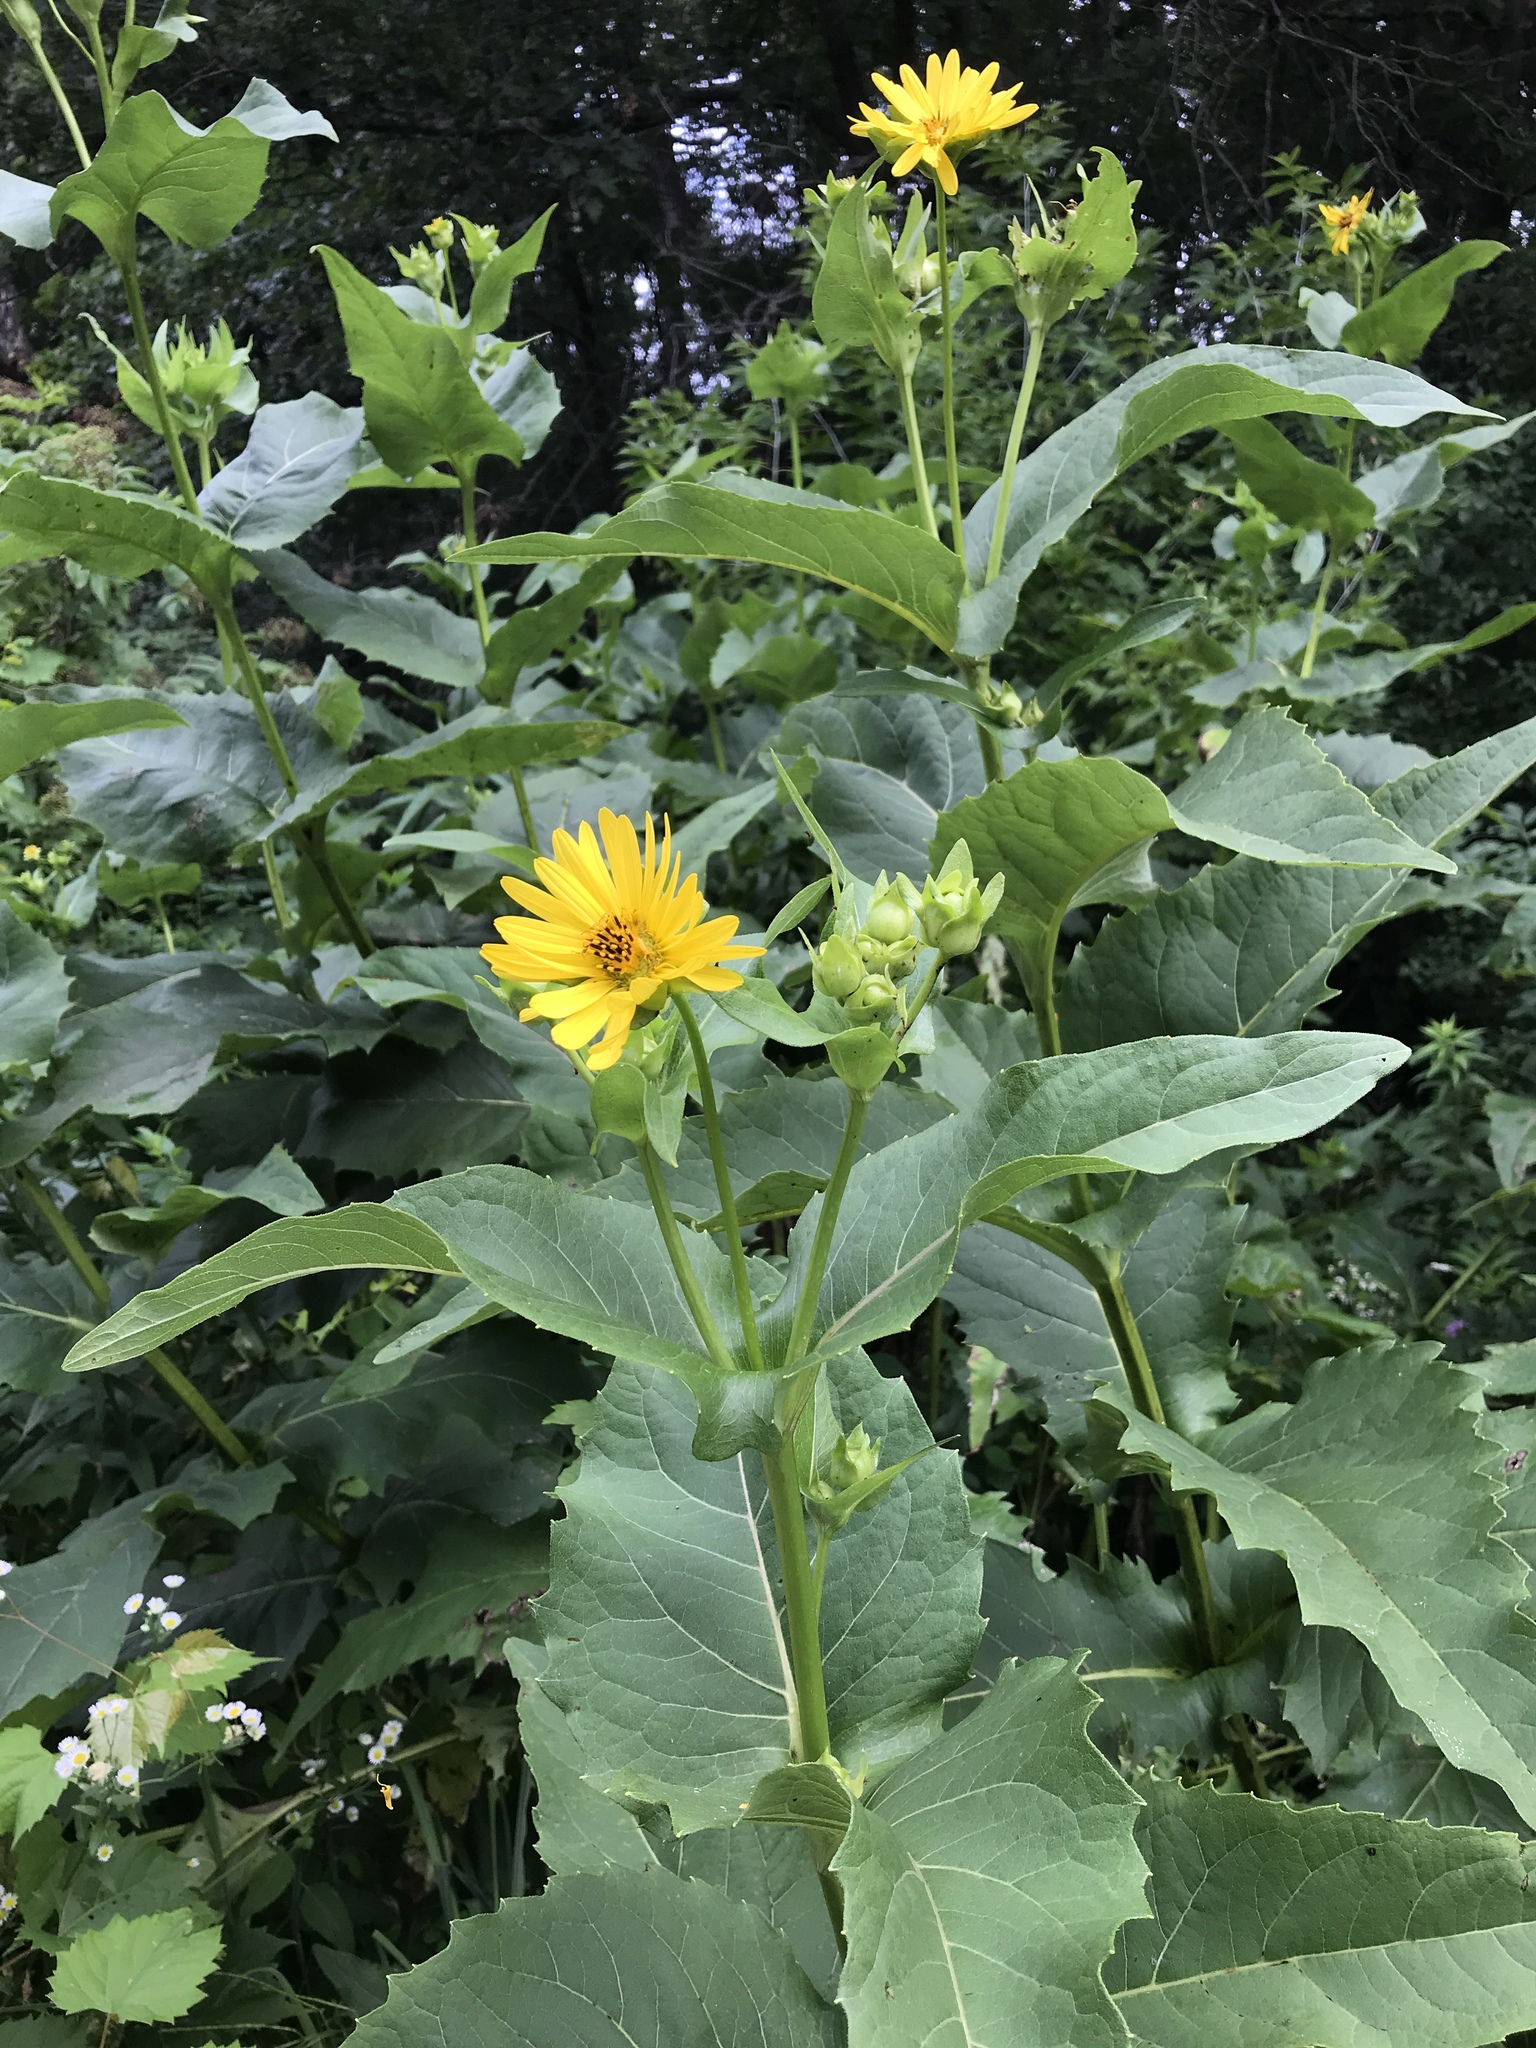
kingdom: Plantae
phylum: Tracheophyta
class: Magnoliopsida
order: Asterales
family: Asteraceae
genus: Silphium
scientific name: Silphium perfoliatum
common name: Cup-plant
